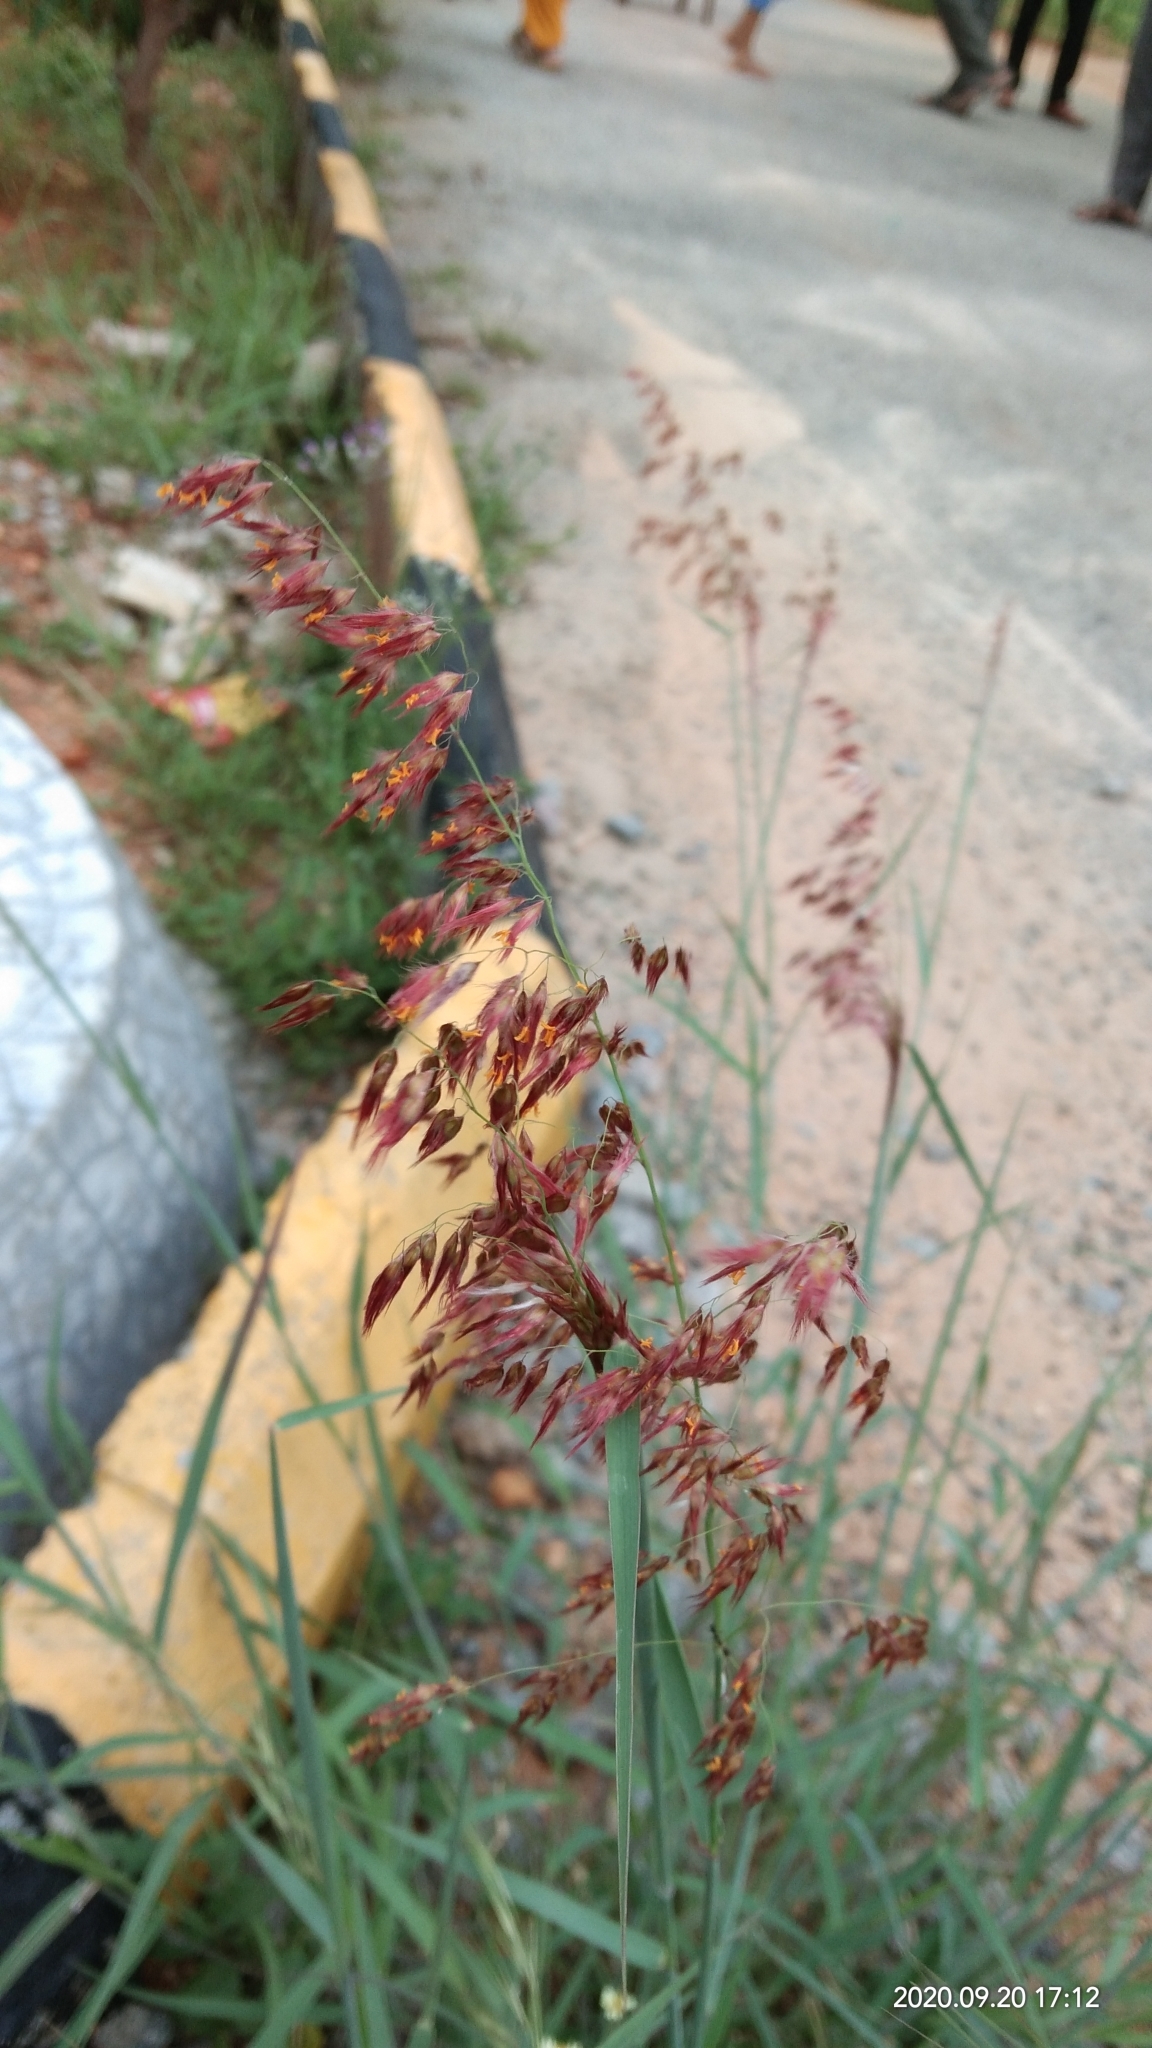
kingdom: Plantae
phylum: Tracheophyta
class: Liliopsida
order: Poales
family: Poaceae
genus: Melinis
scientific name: Melinis repens
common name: Rose natal grass
